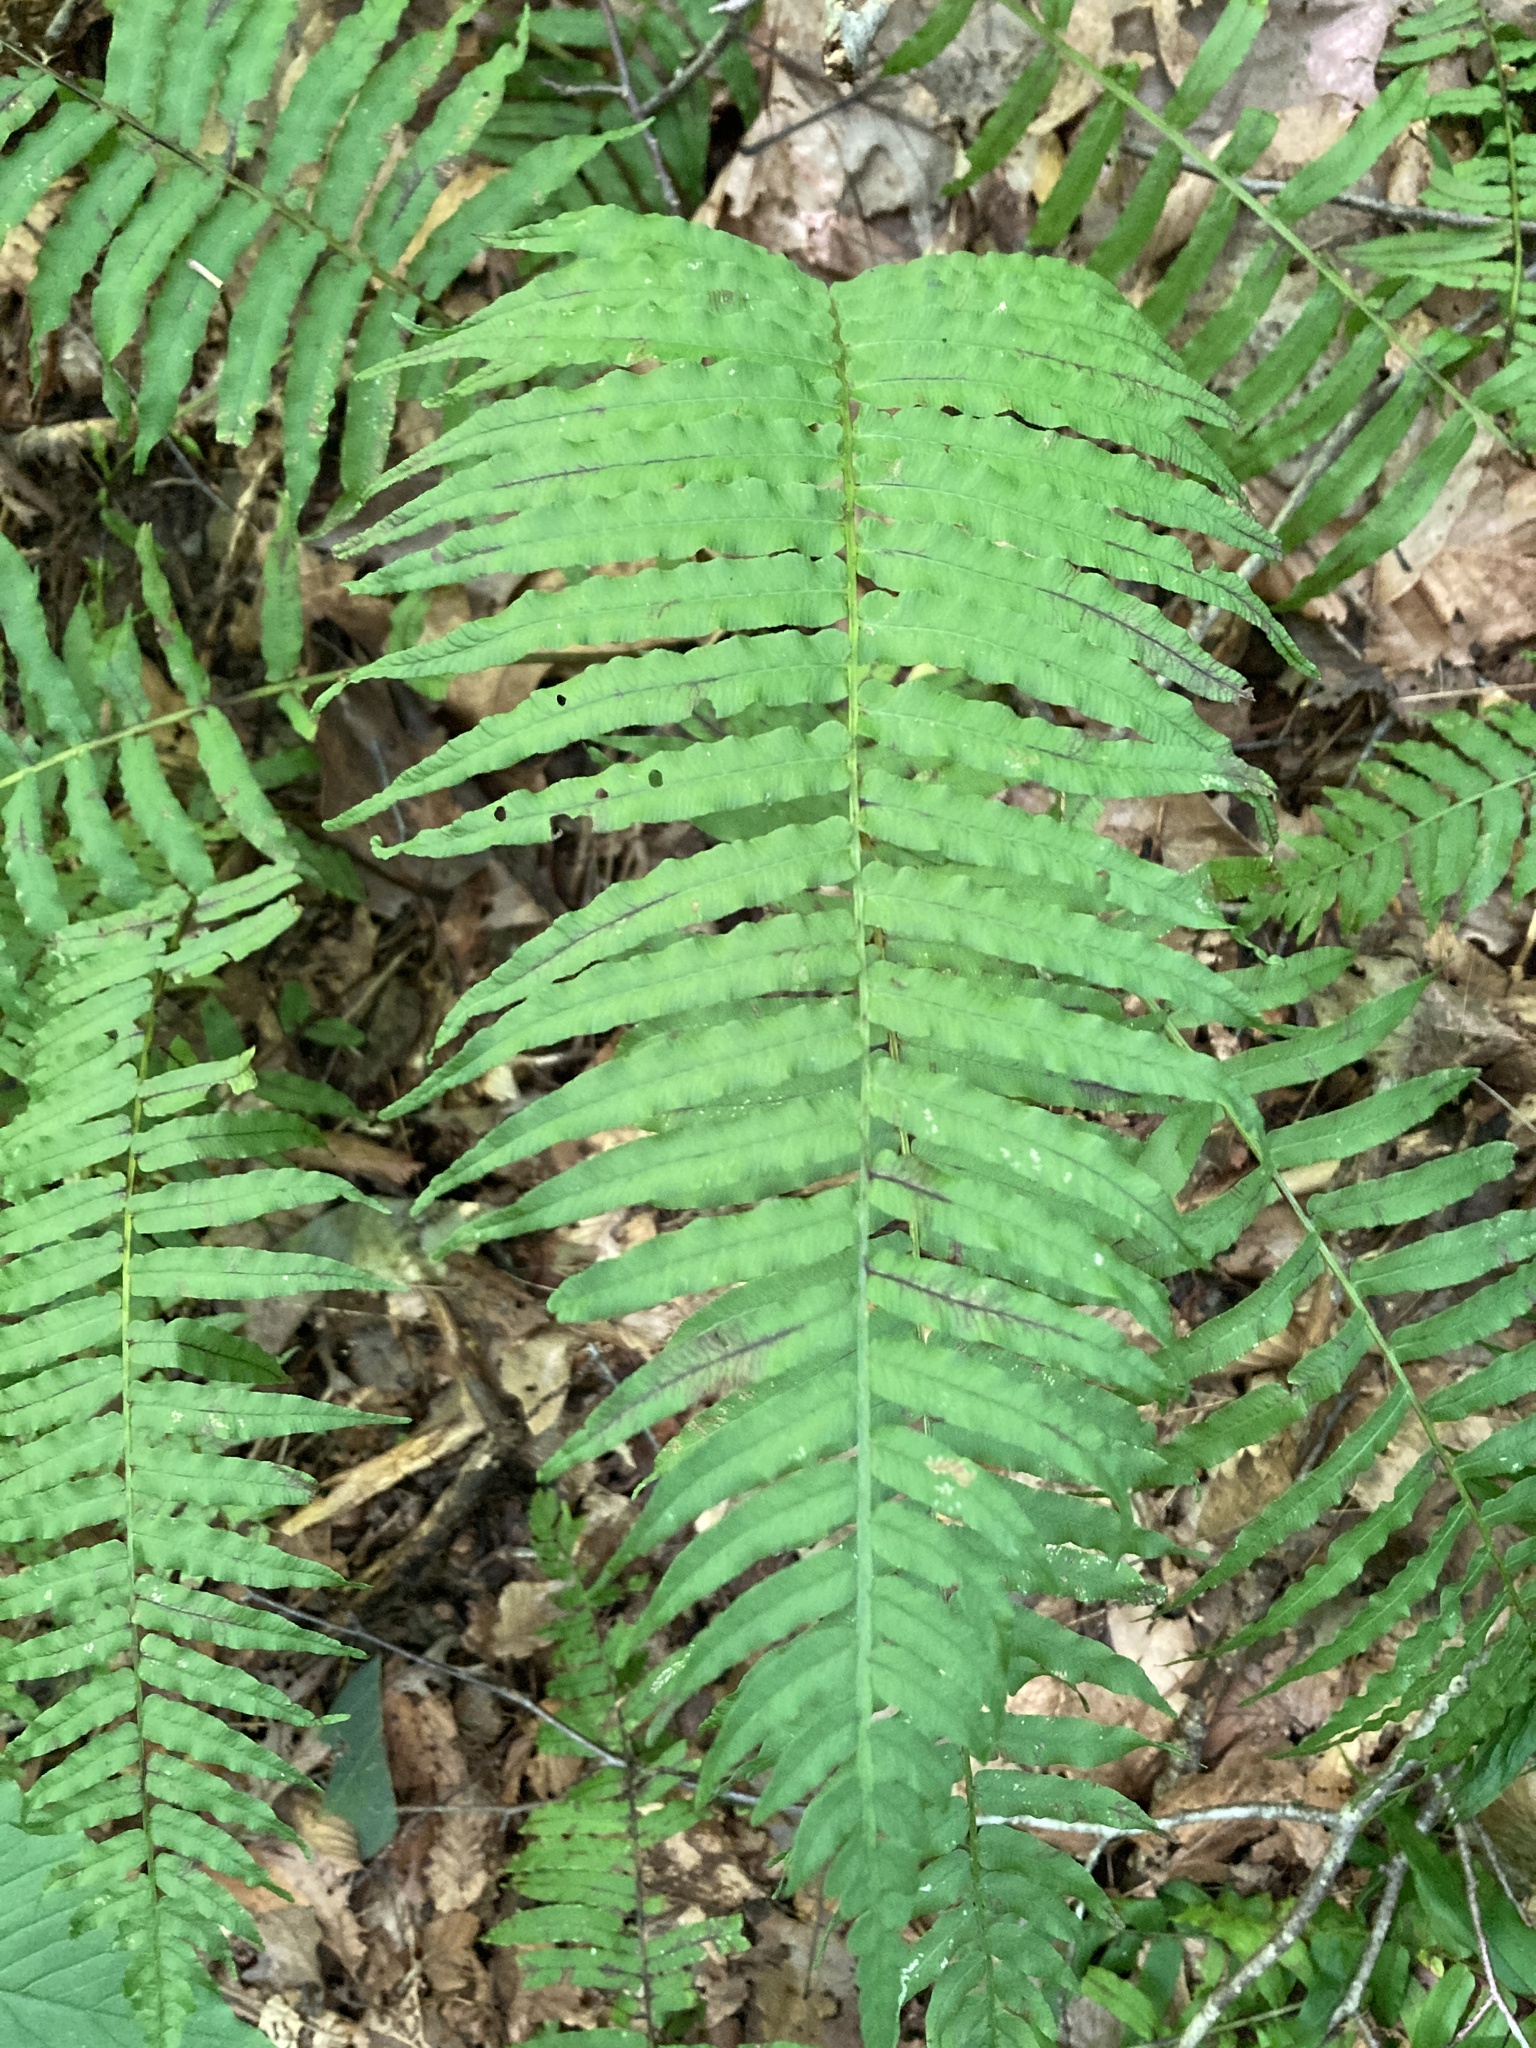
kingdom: Plantae
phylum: Tracheophyta
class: Polypodiopsida
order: Polypodiales
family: Diplaziopsidaceae
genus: Homalosorus
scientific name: Homalosorus pycnocarpos
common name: Glade fern
